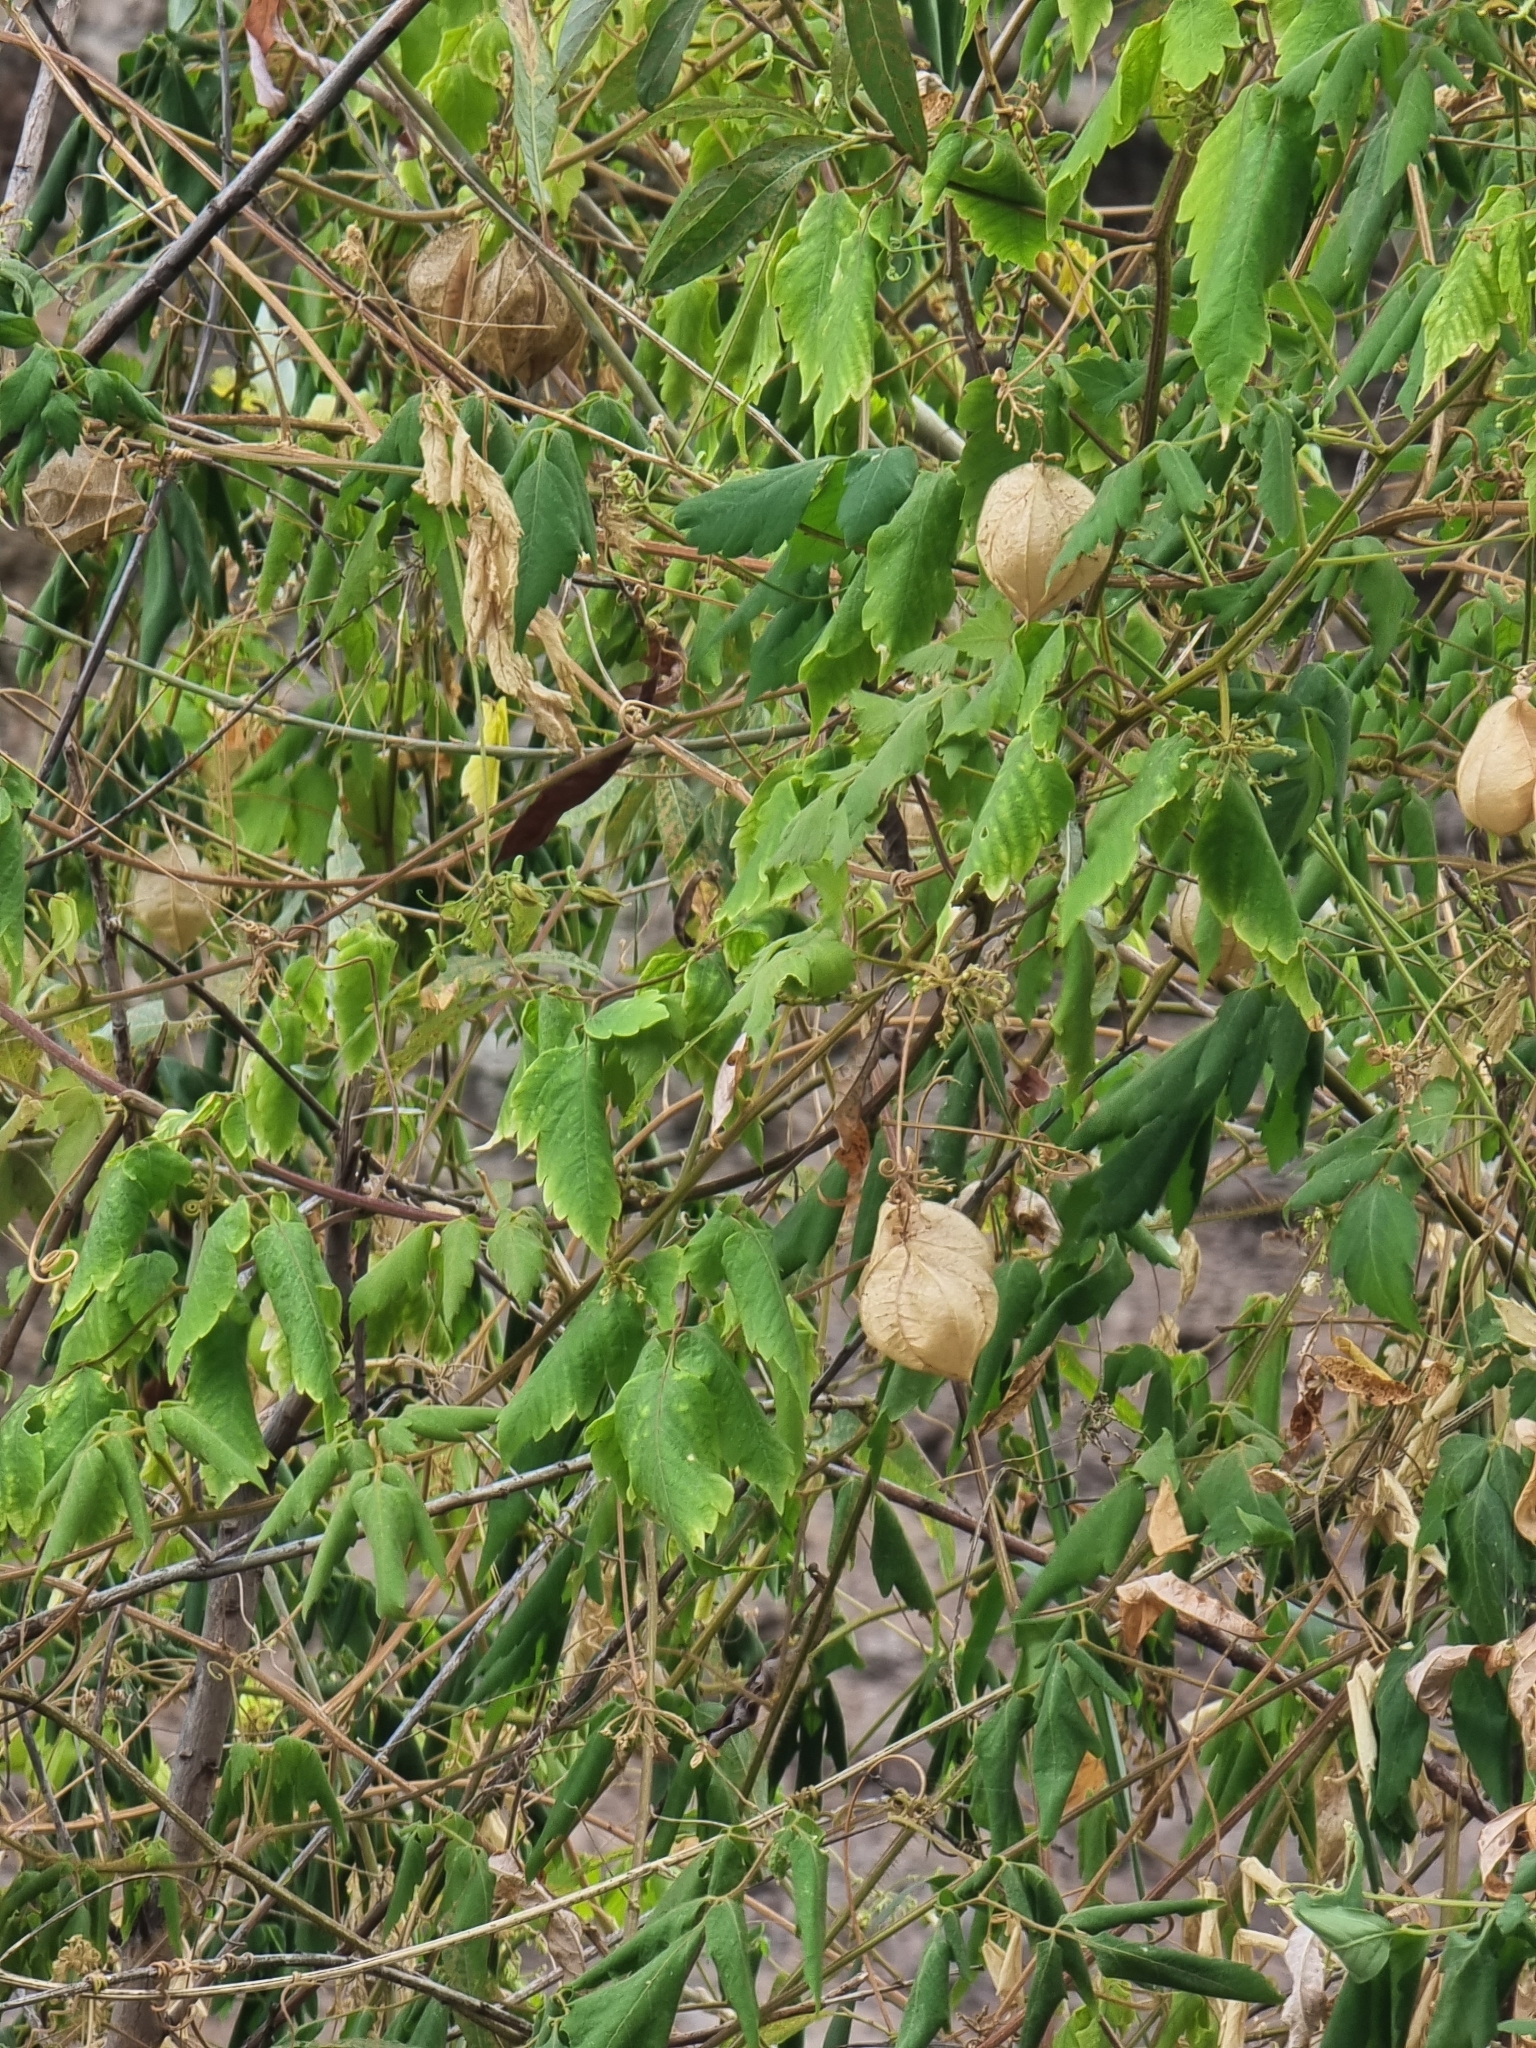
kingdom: Plantae
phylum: Tracheophyta
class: Magnoliopsida
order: Sapindales
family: Sapindaceae
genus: Cardiospermum
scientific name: Cardiospermum grandiflorum
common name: Balloon vine
